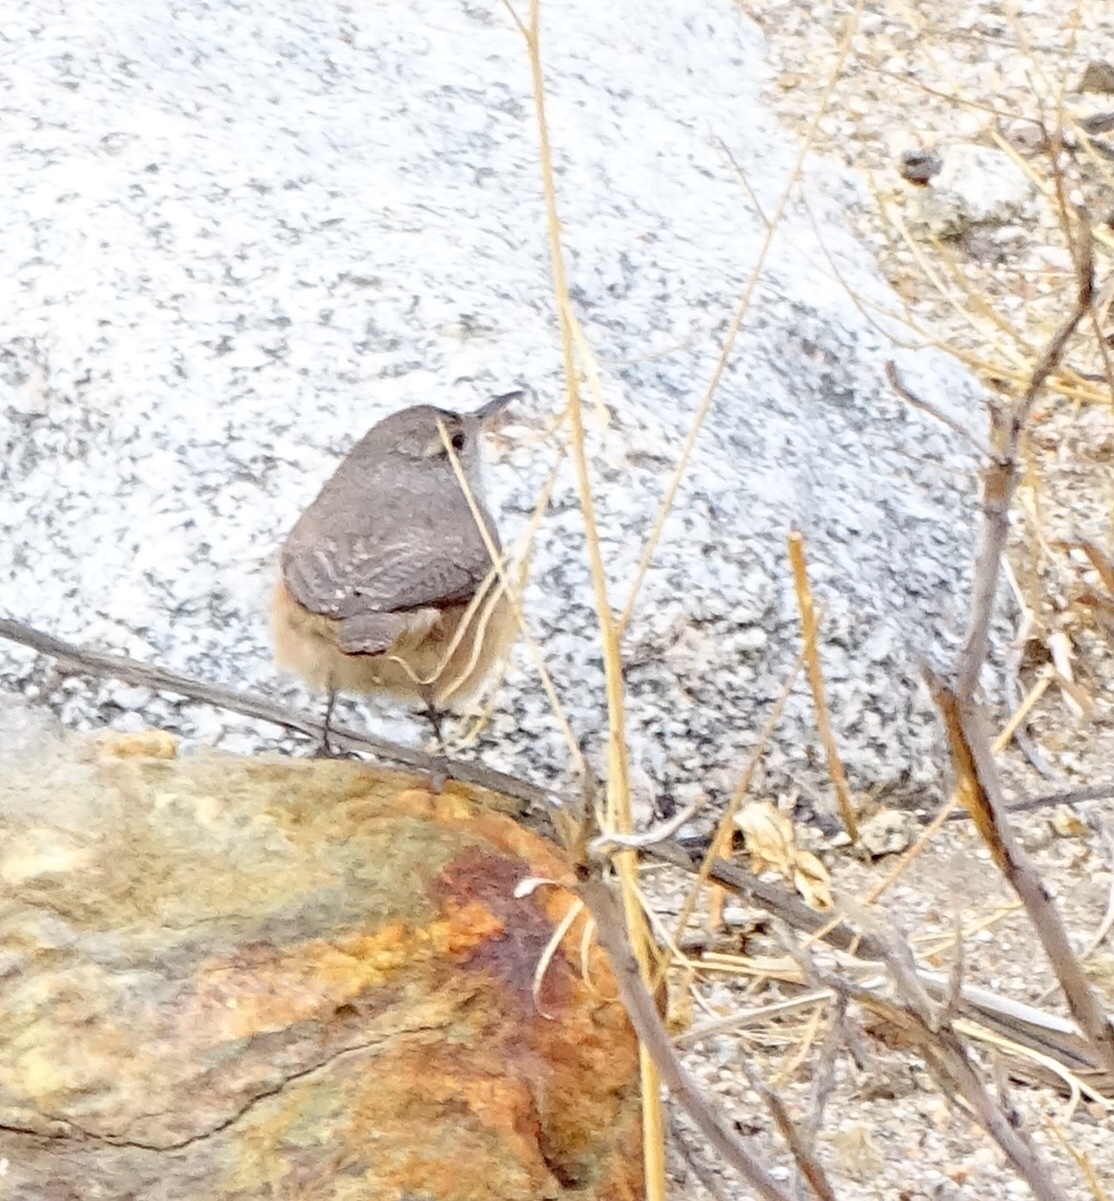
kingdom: Animalia
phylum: Chordata
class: Aves
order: Passeriformes
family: Troglodytidae
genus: Salpinctes
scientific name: Salpinctes obsoletus
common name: Rock wren
